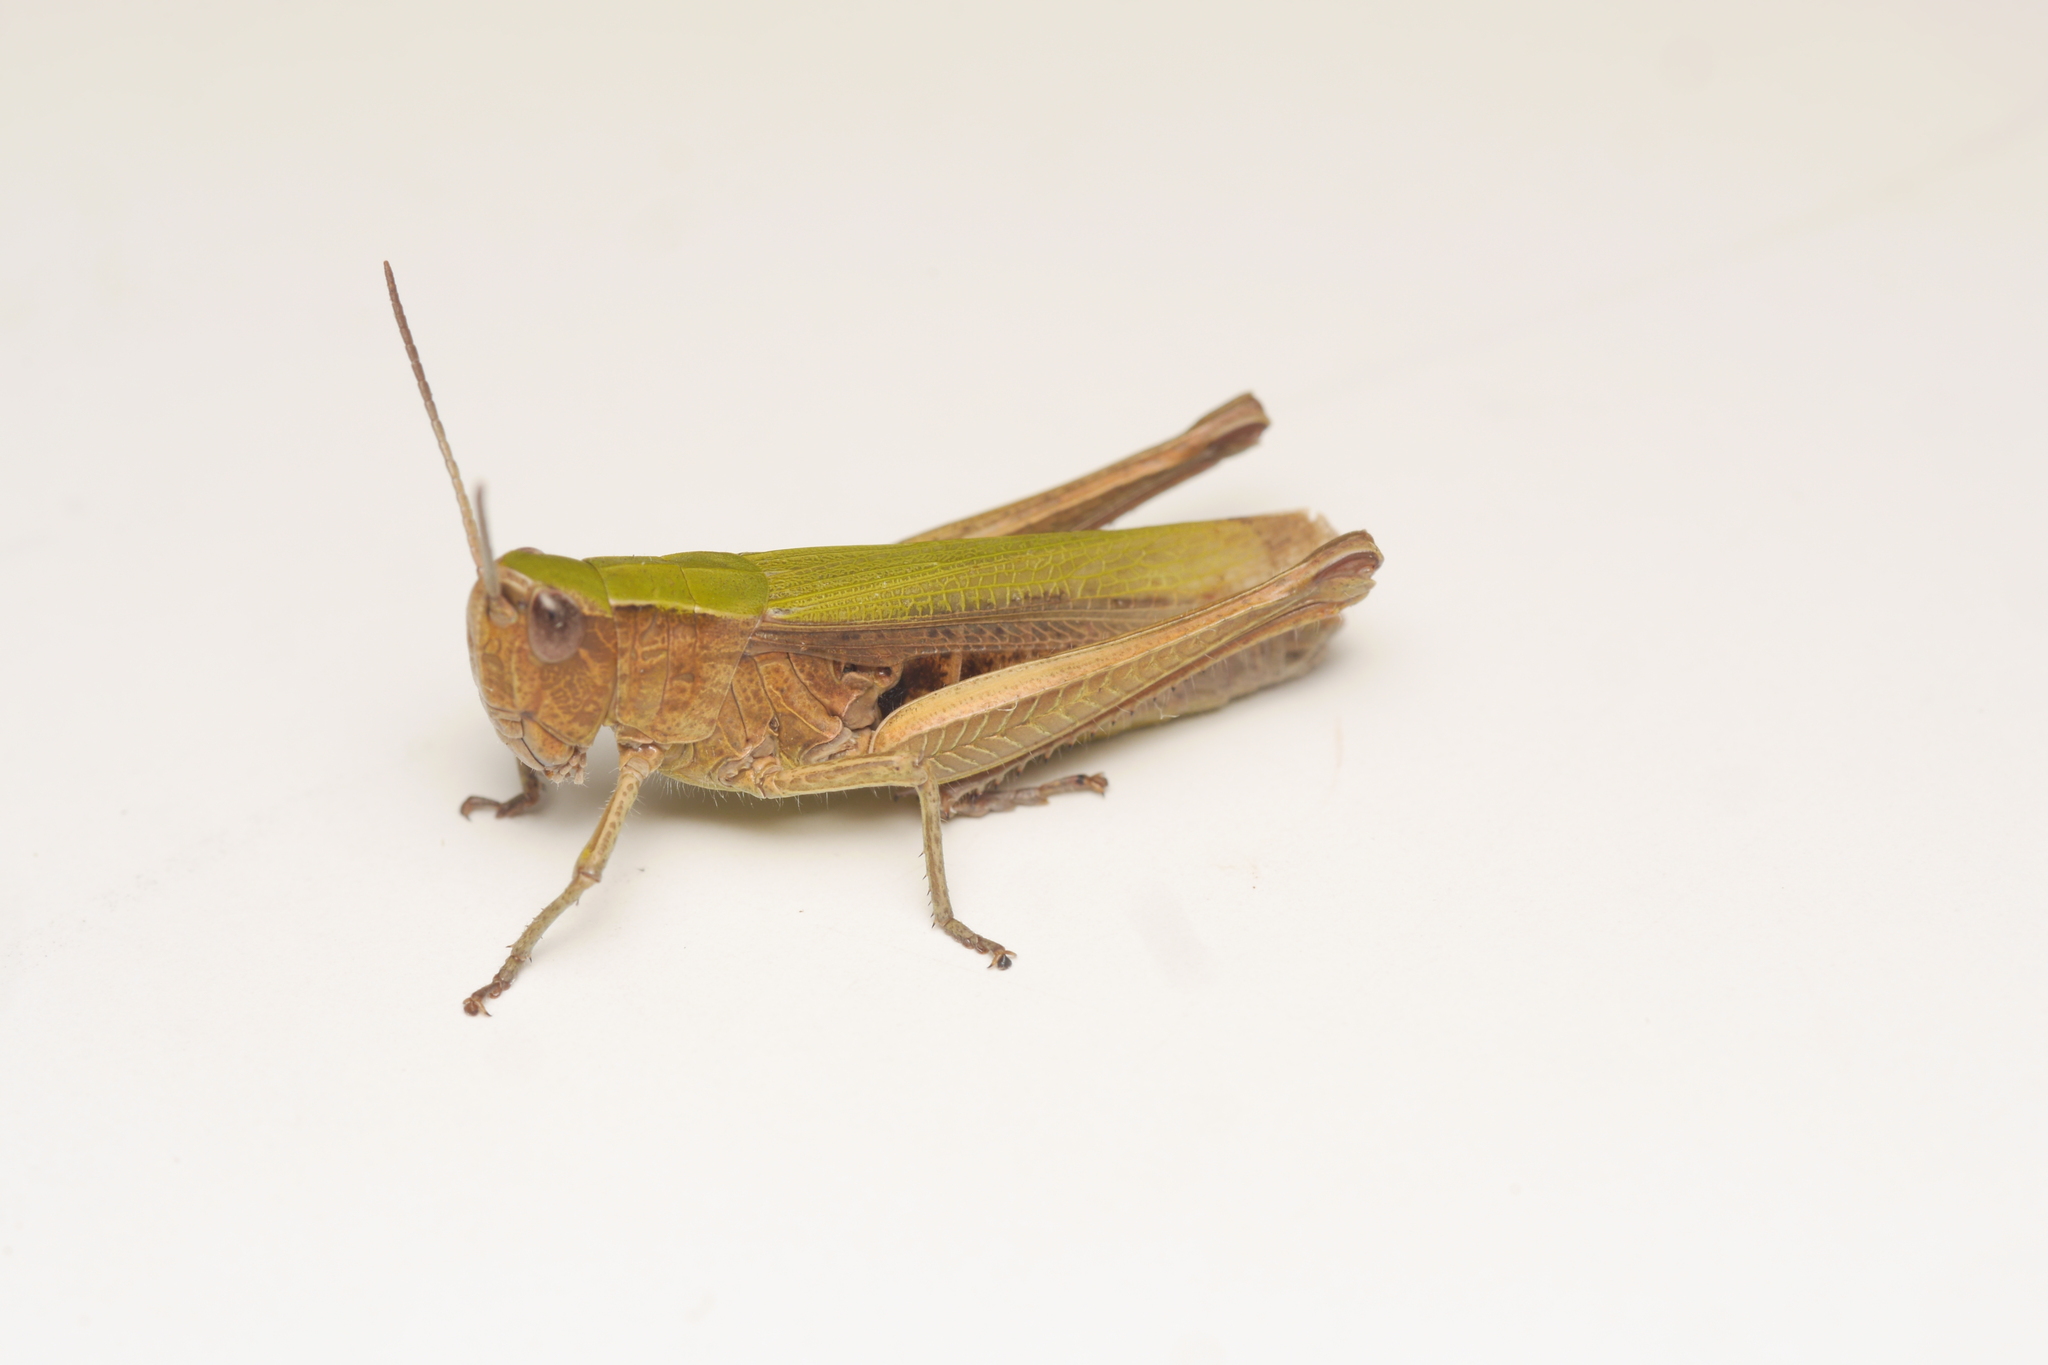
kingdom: Animalia
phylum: Arthropoda
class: Insecta
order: Orthoptera
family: Acrididae
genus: Chorthippus
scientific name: Chorthippus dorsatus
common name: Steppe grasshopper
